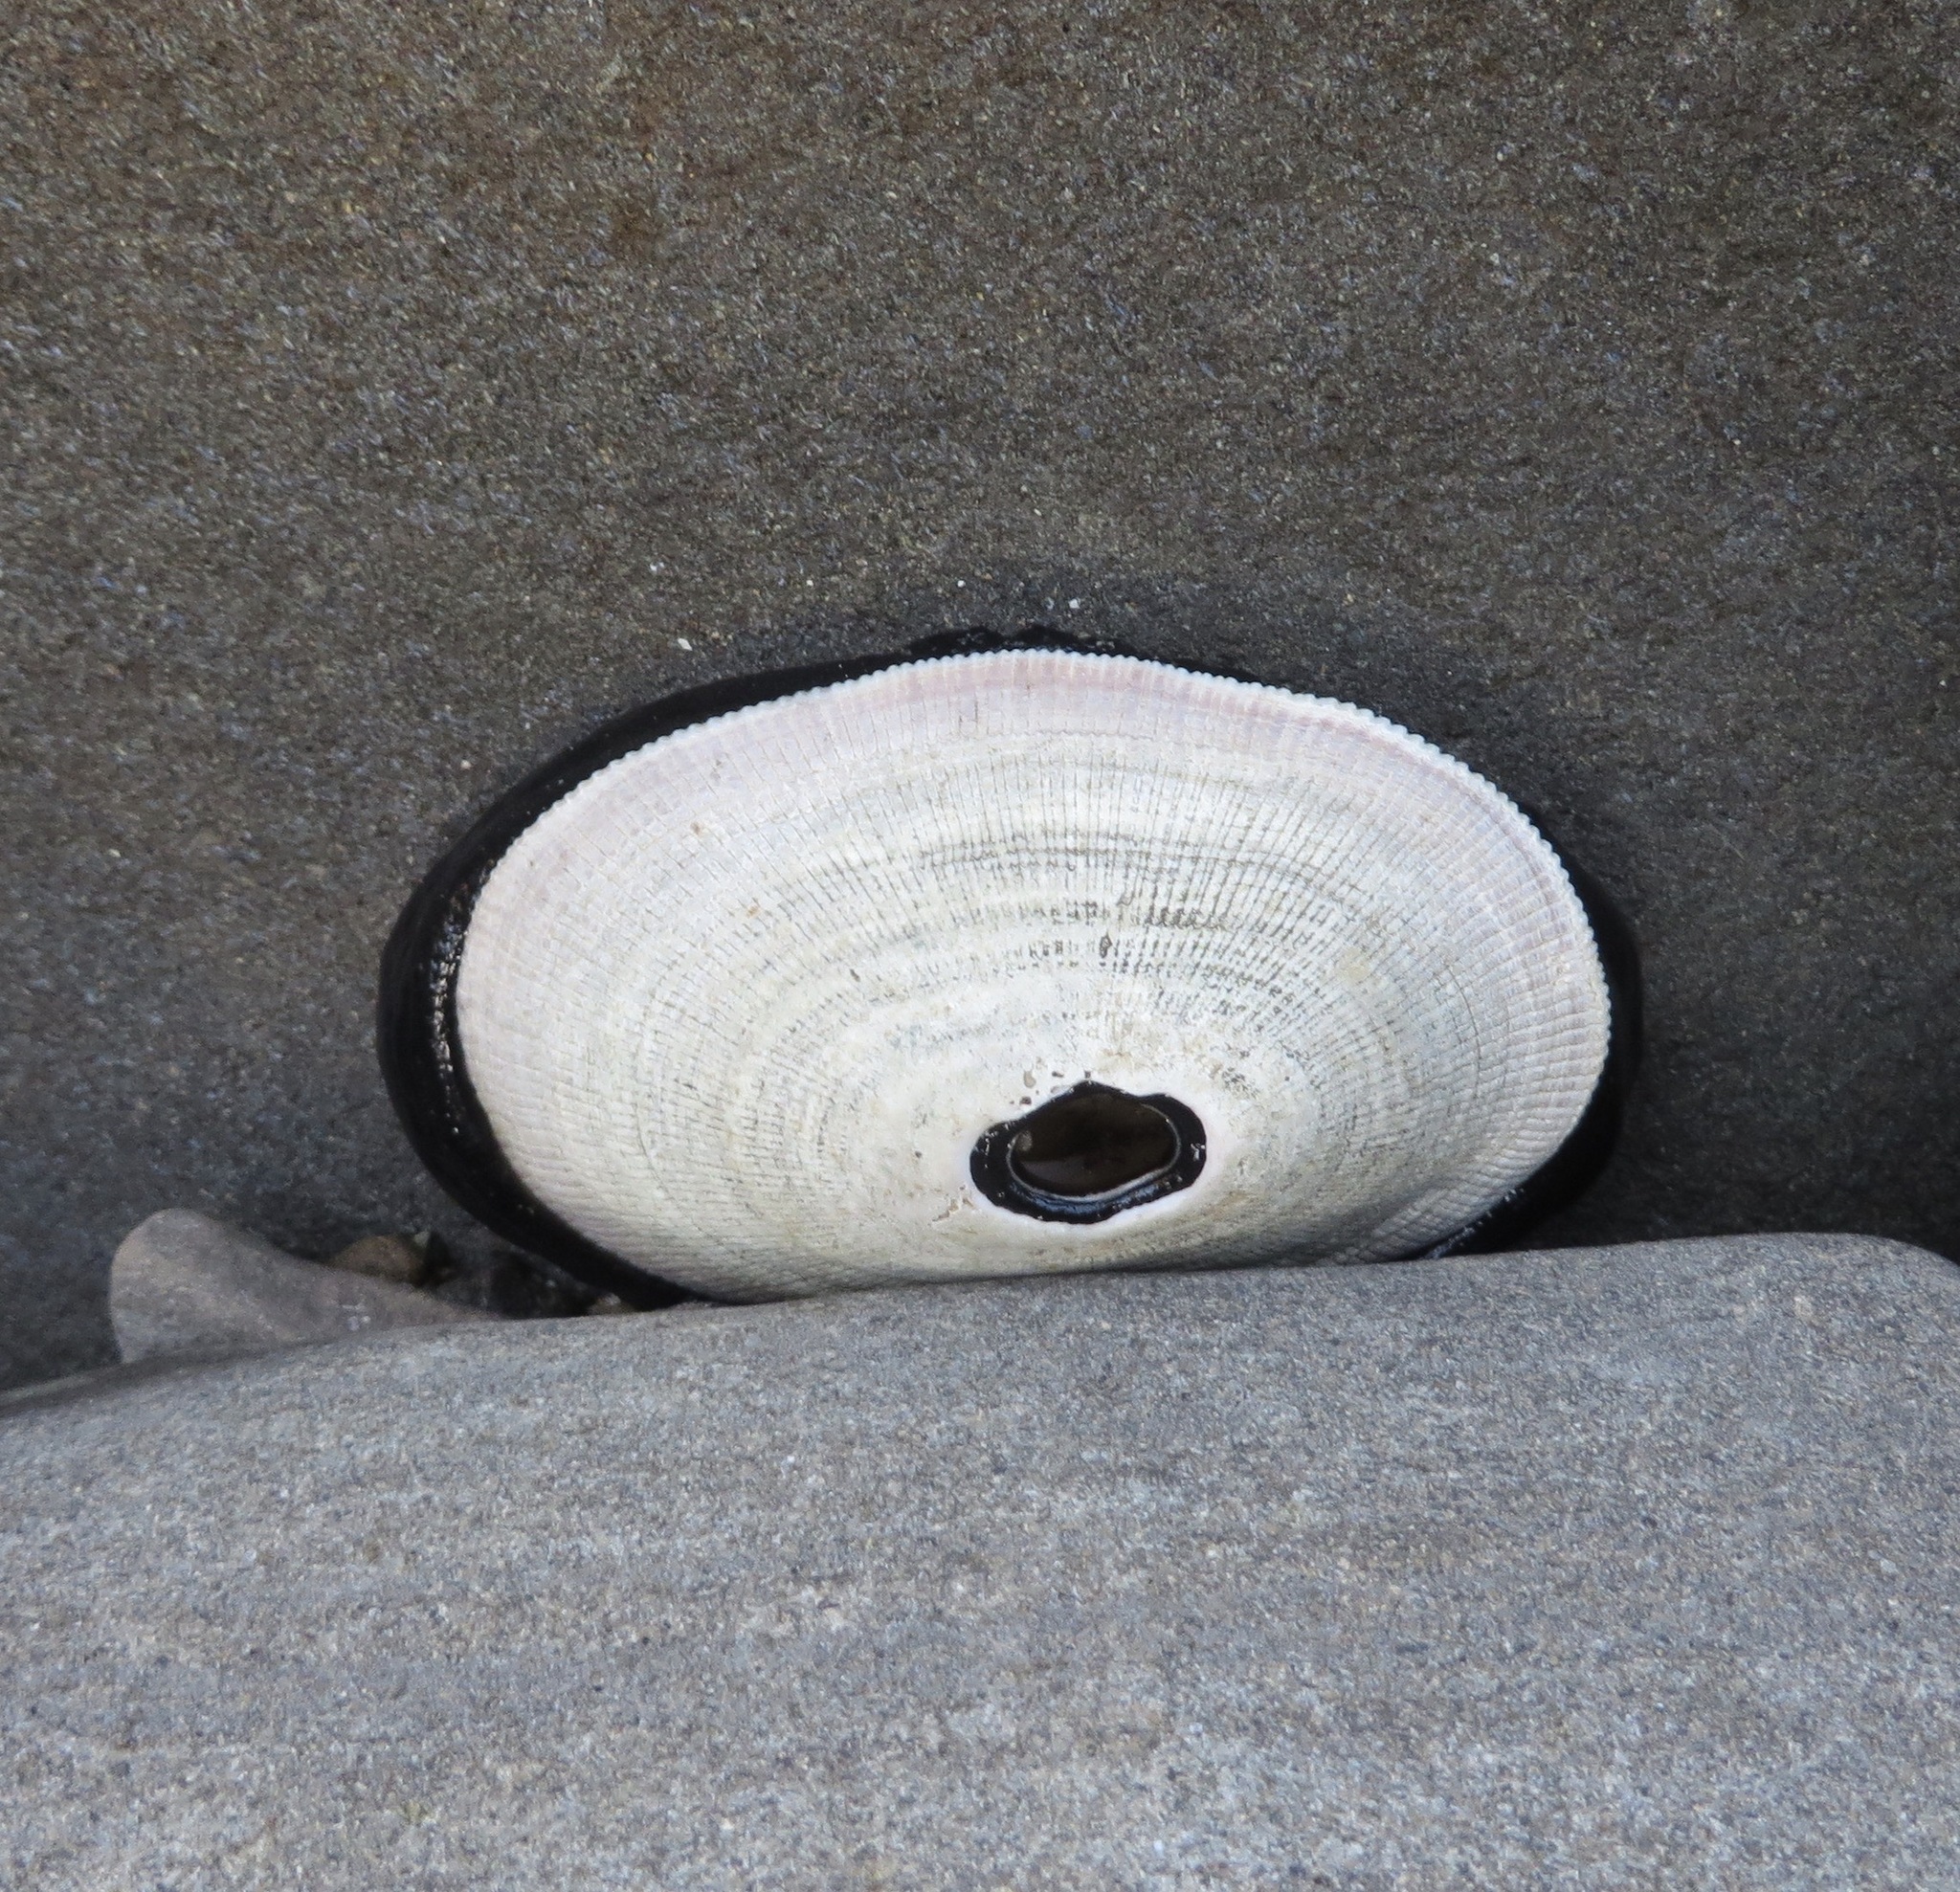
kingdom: Animalia
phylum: Mollusca
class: Gastropoda
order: Lepetellida
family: Fissurellidae
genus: Megathura
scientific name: Megathura crenulata
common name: Giant keyhole limpet
